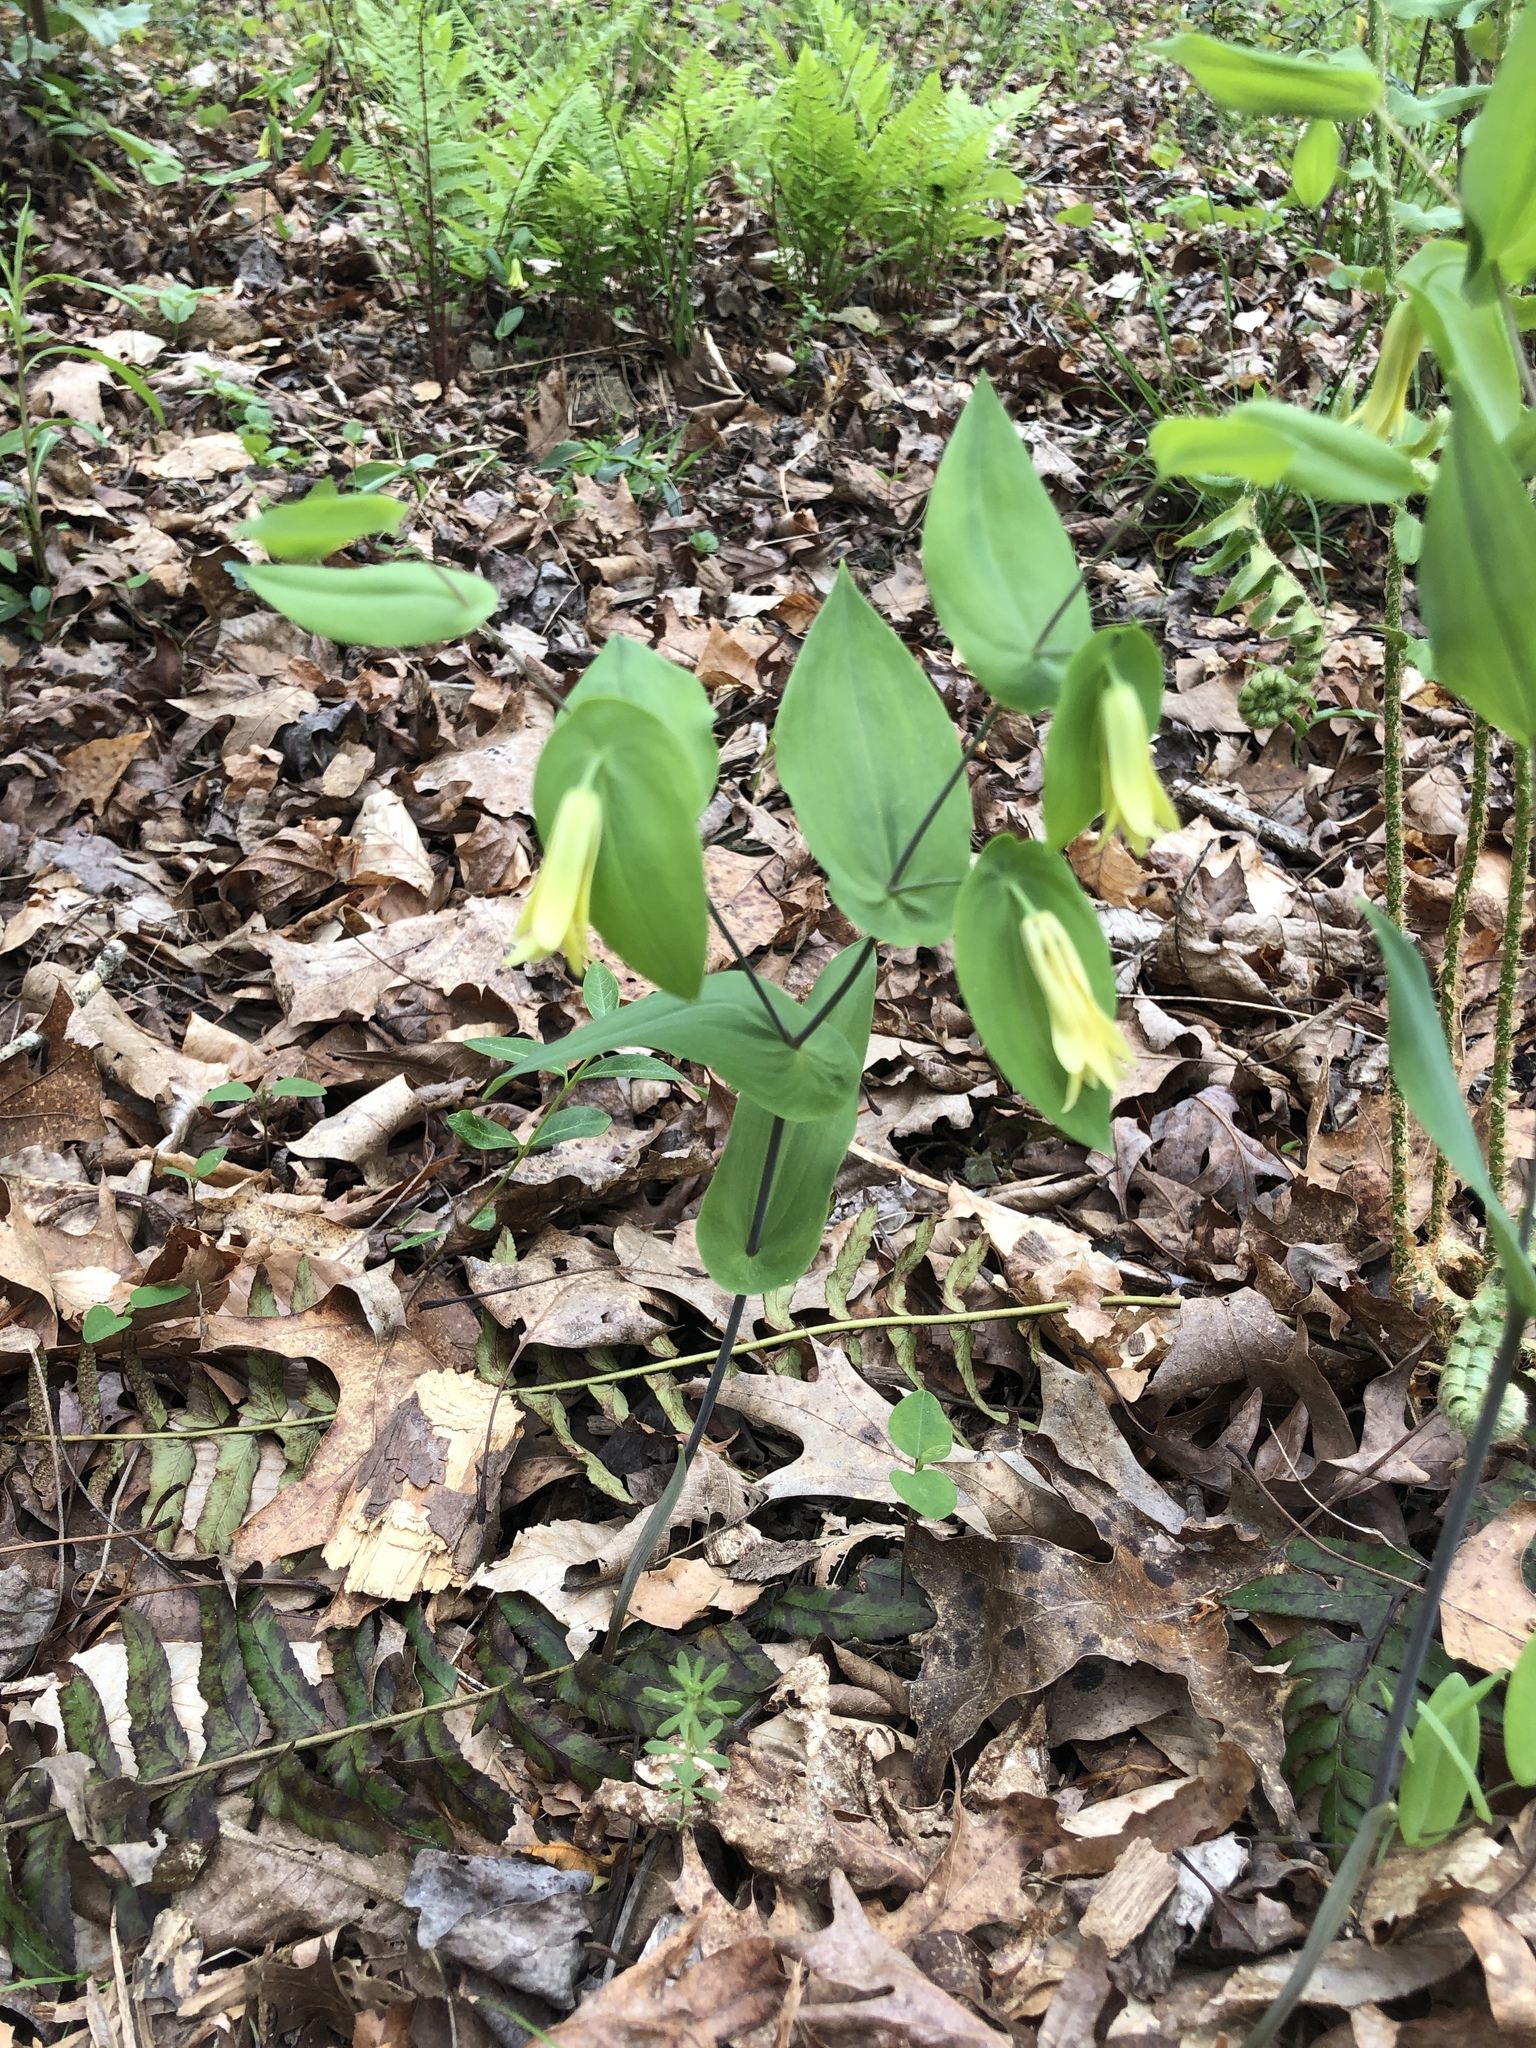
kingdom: Plantae
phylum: Tracheophyta
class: Liliopsida
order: Liliales
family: Colchicaceae
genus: Uvularia
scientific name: Uvularia perfoliata
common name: Perfoliate bellwort
